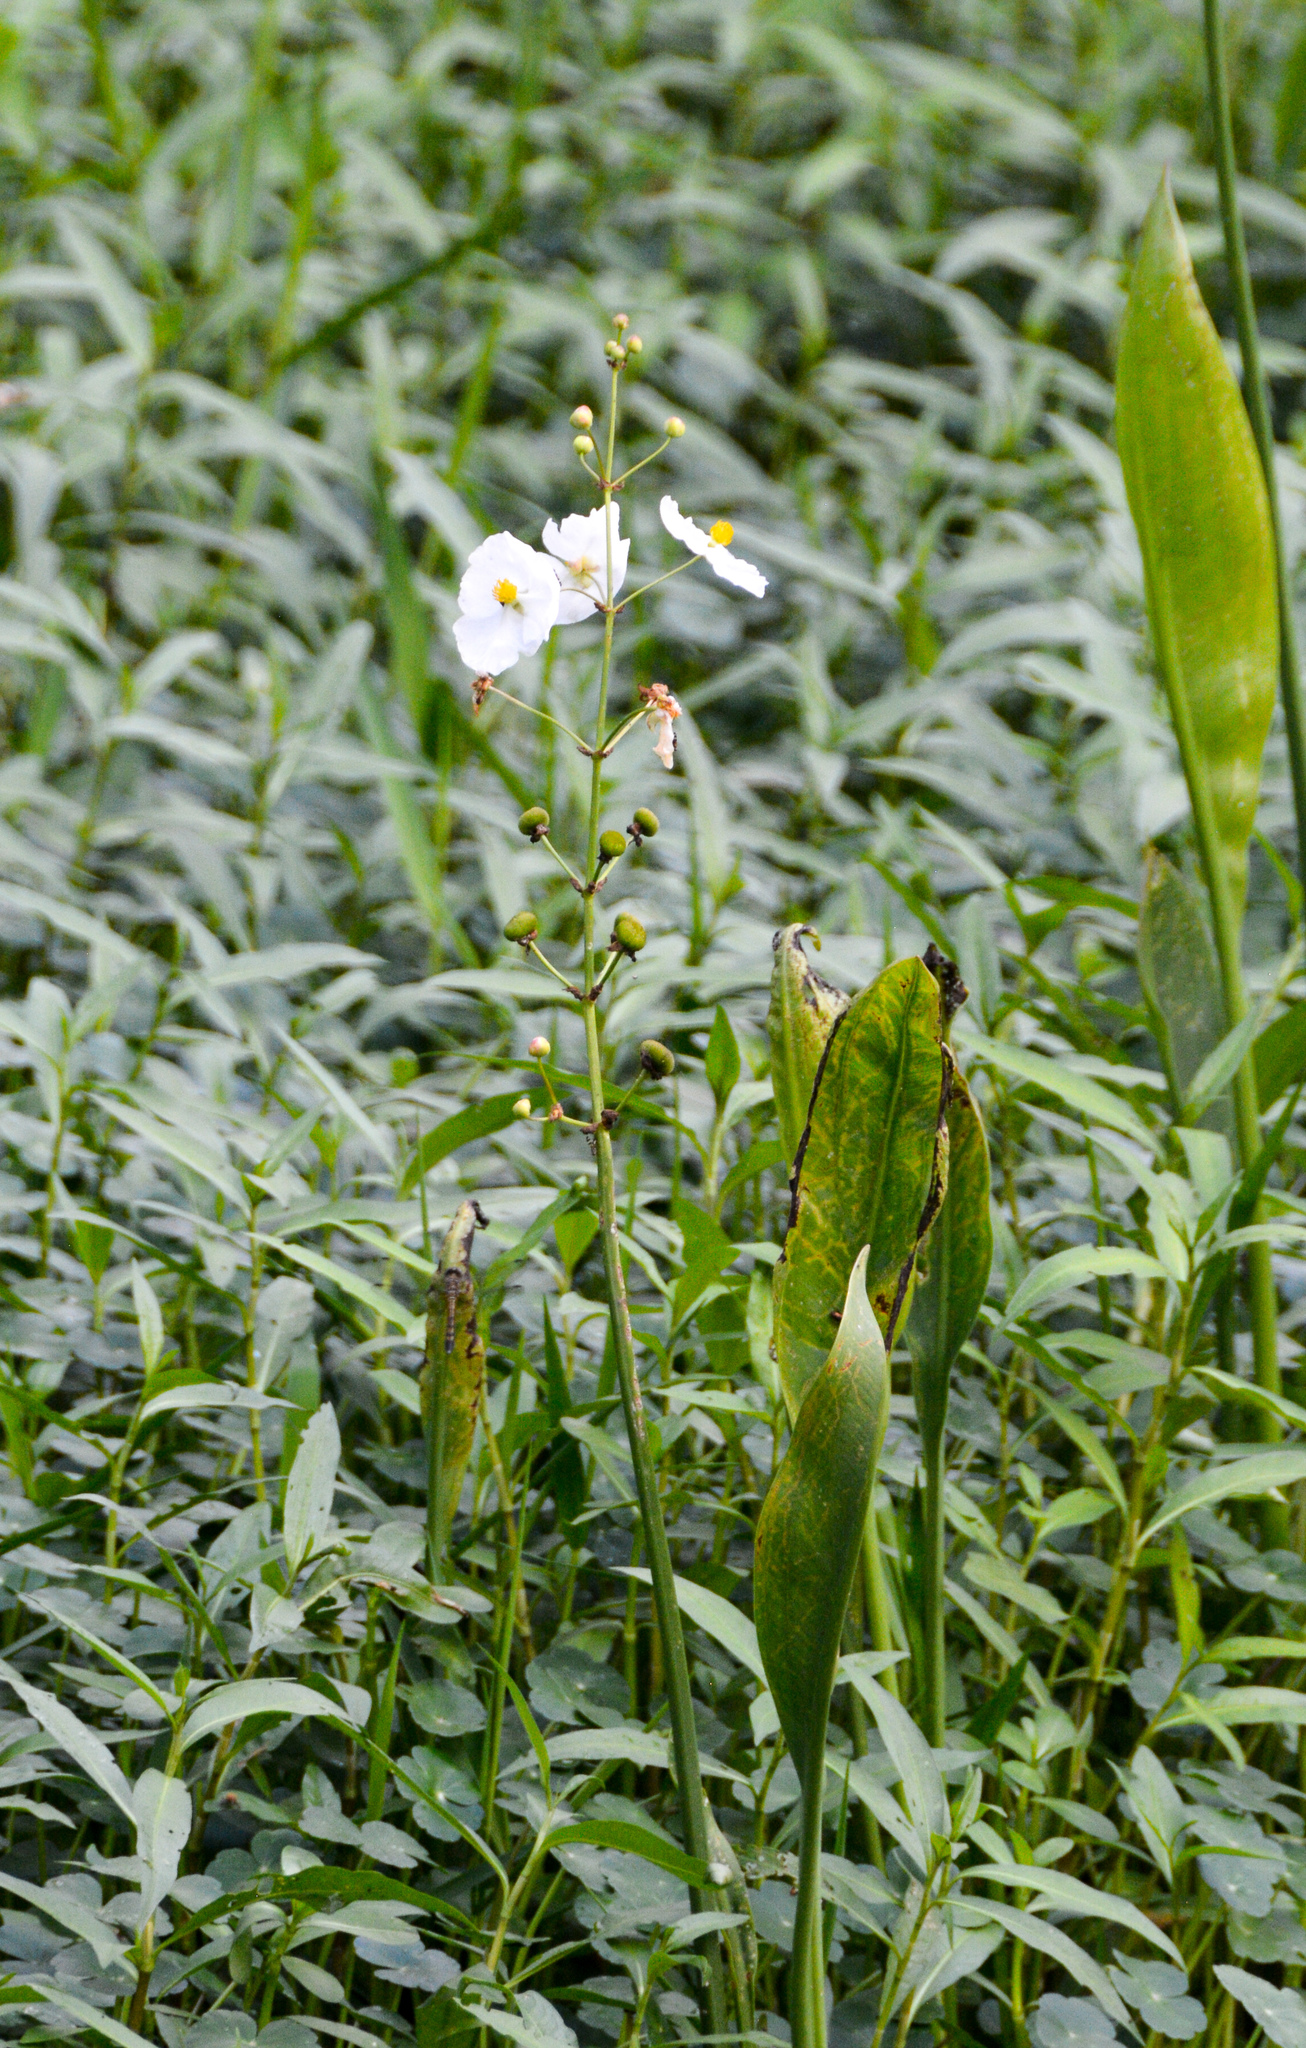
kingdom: Plantae
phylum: Tracheophyta
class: Liliopsida
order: Alismatales
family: Alismataceae
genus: Sagittaria
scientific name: Sagittaria lancifolia
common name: Lance-leaf arrowhead
